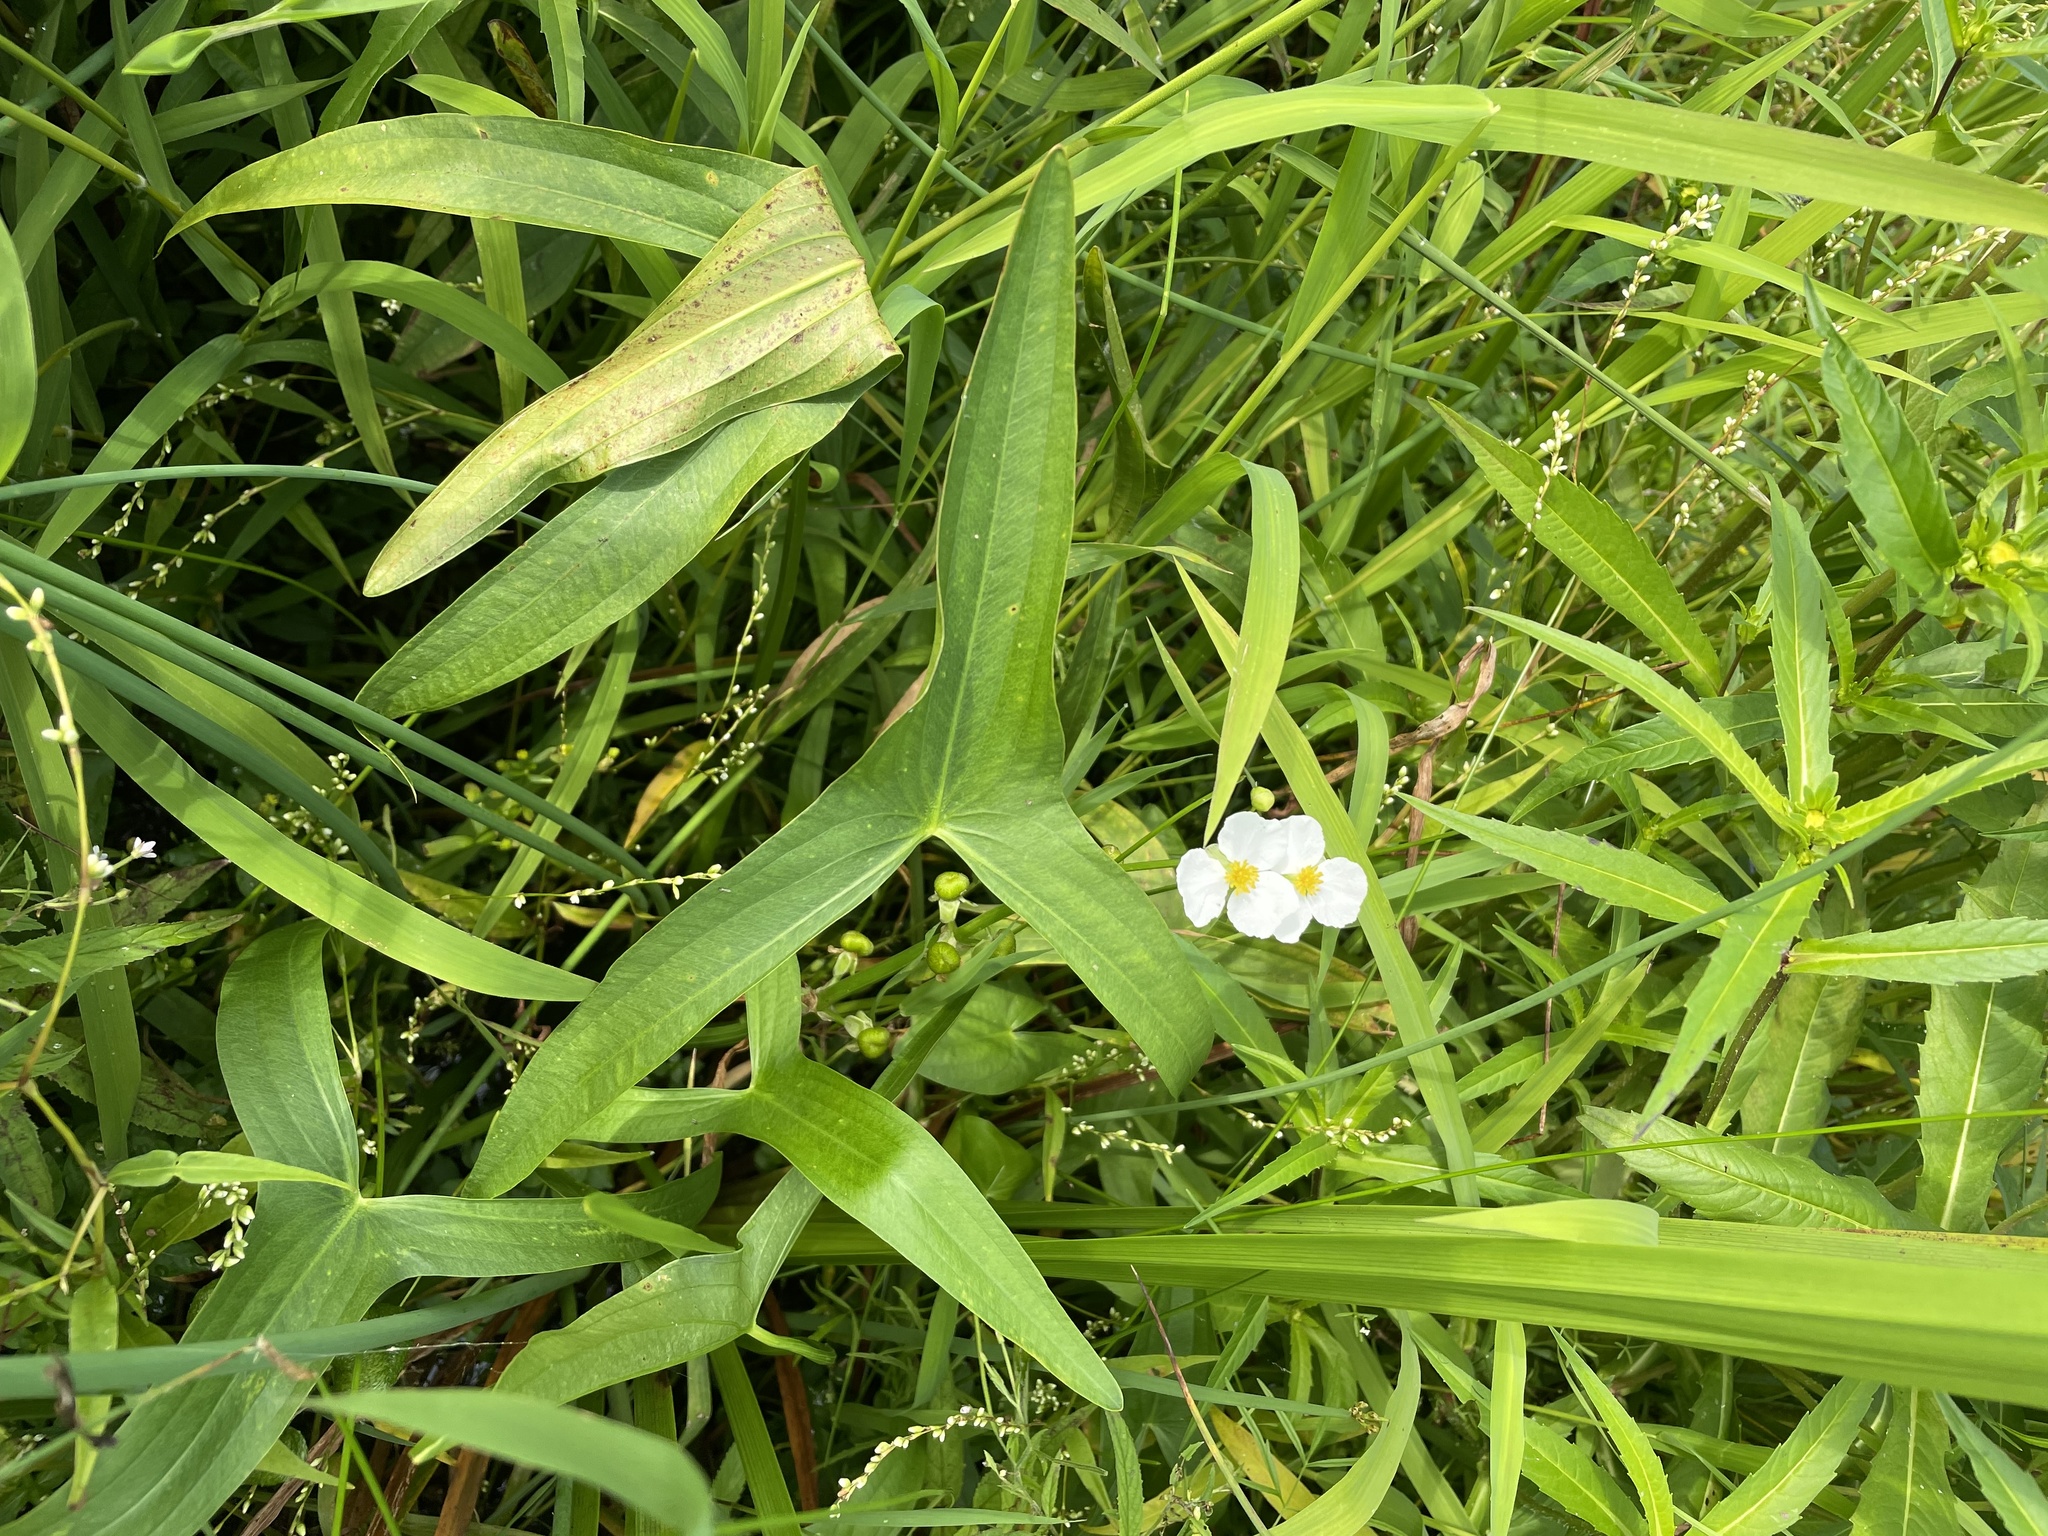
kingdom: Plantae
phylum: Tracheophyta
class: Liliopsida
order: Alismatales
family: Alismataceae
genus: Sagittaria
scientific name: Sagittaria latifolia
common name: Duck-potato
